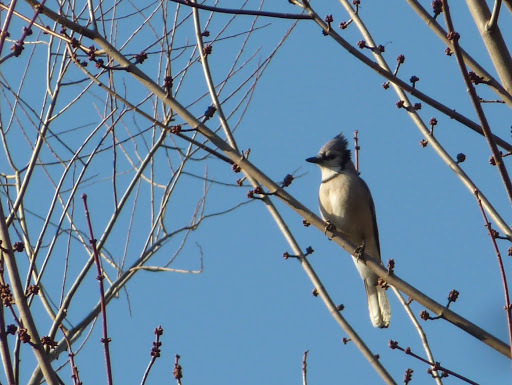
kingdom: Animalia
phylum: Chordata
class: Aves
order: Passeriformes
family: Corvidae
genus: Cyanocitta
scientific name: Cyanocitta cristata
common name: Blue jay
